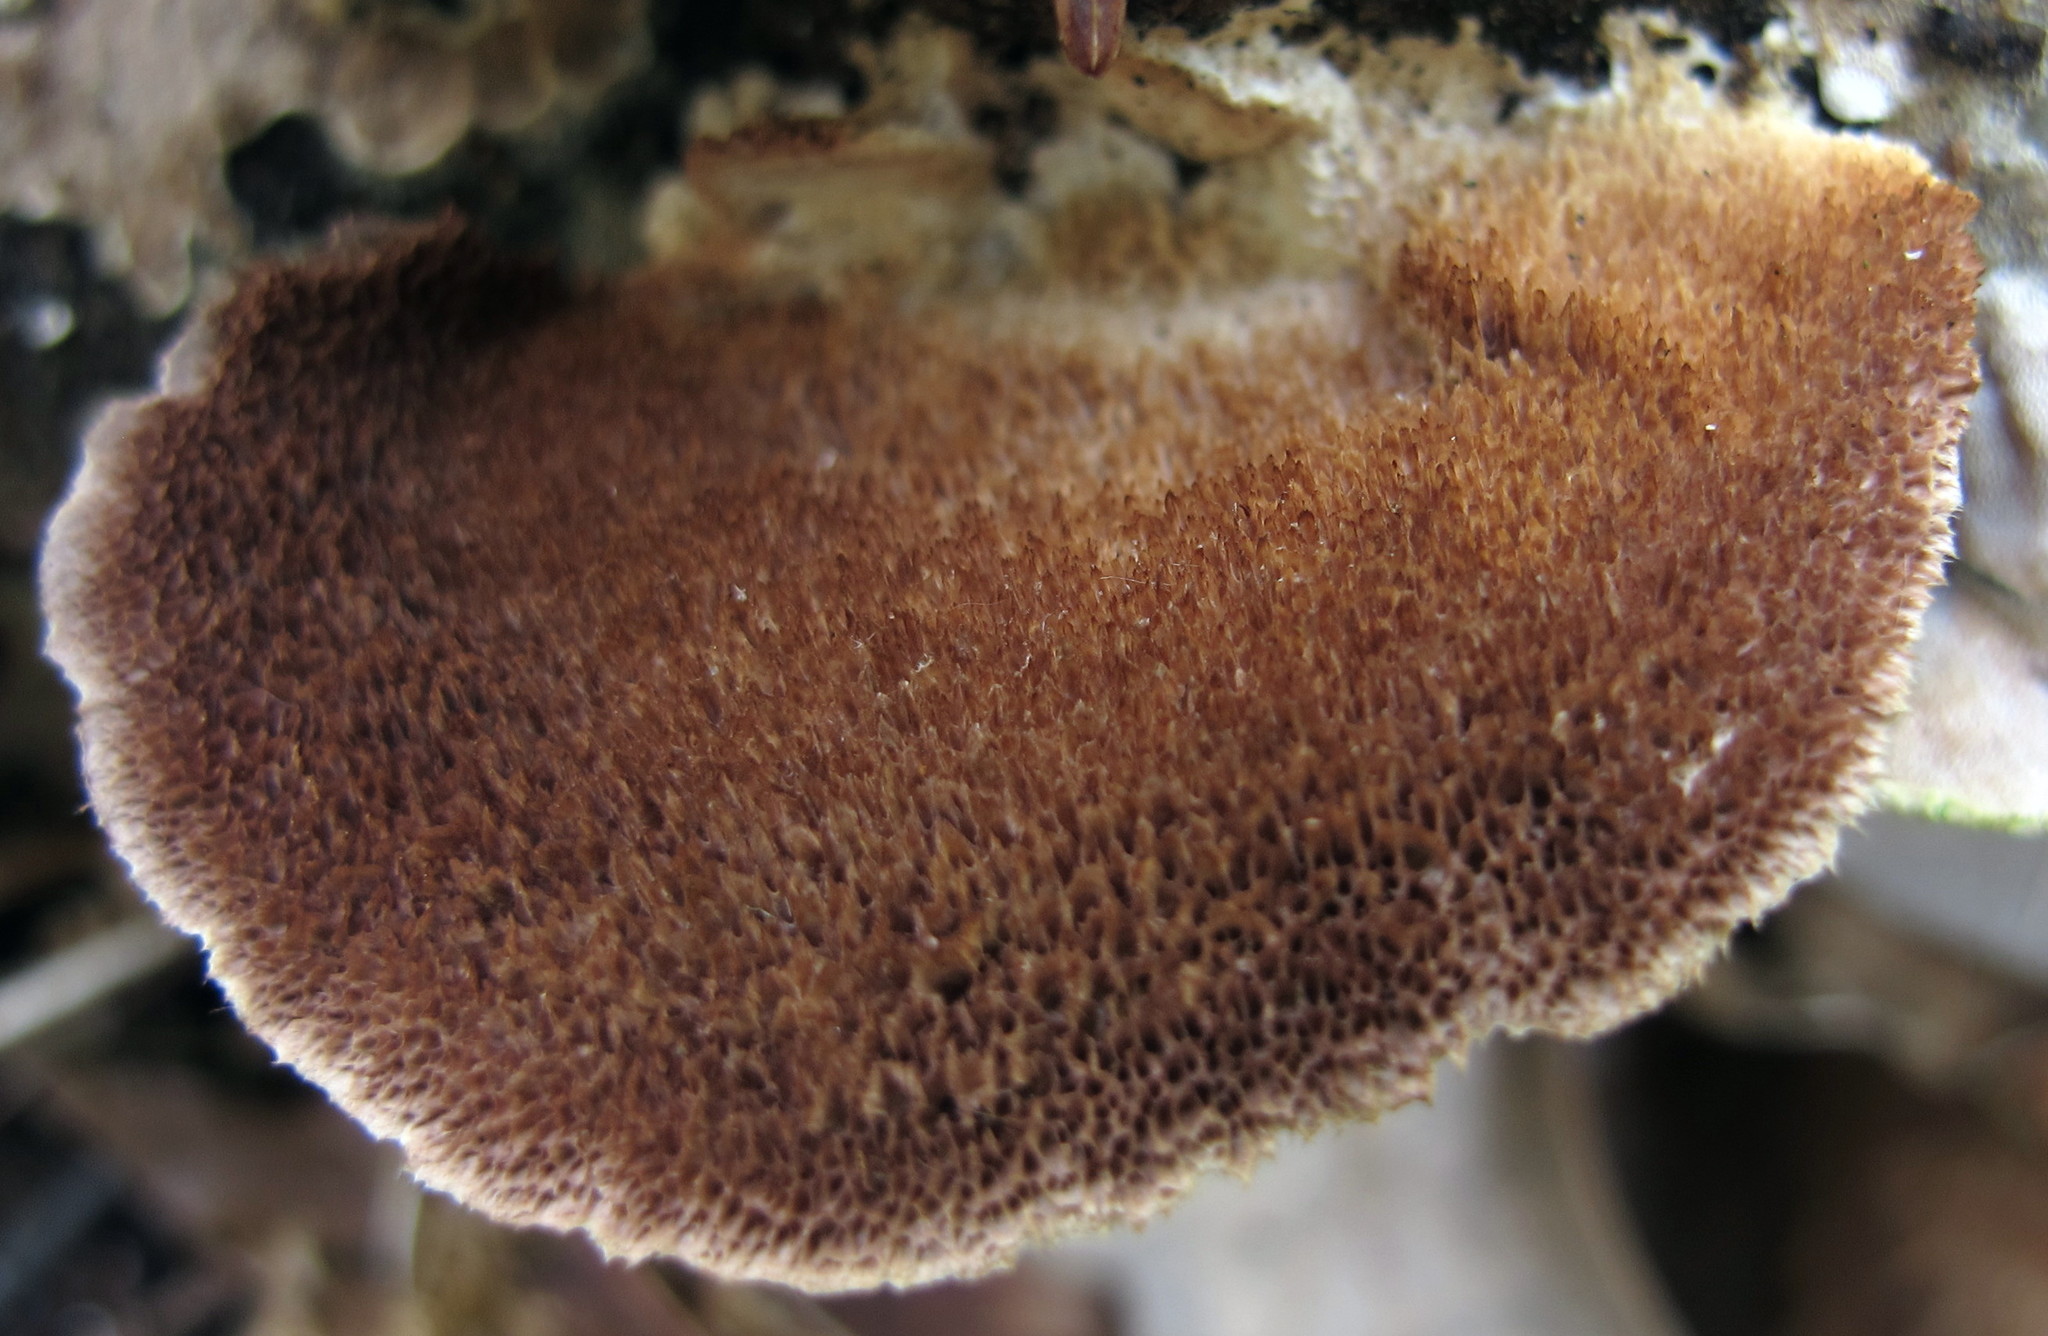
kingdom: Fungi
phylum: Basidiomycota
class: Agaricomycetes
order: Hymenochaetales
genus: Trichaptum
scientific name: Trichaptum biforme
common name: Violet-toothed polypore
